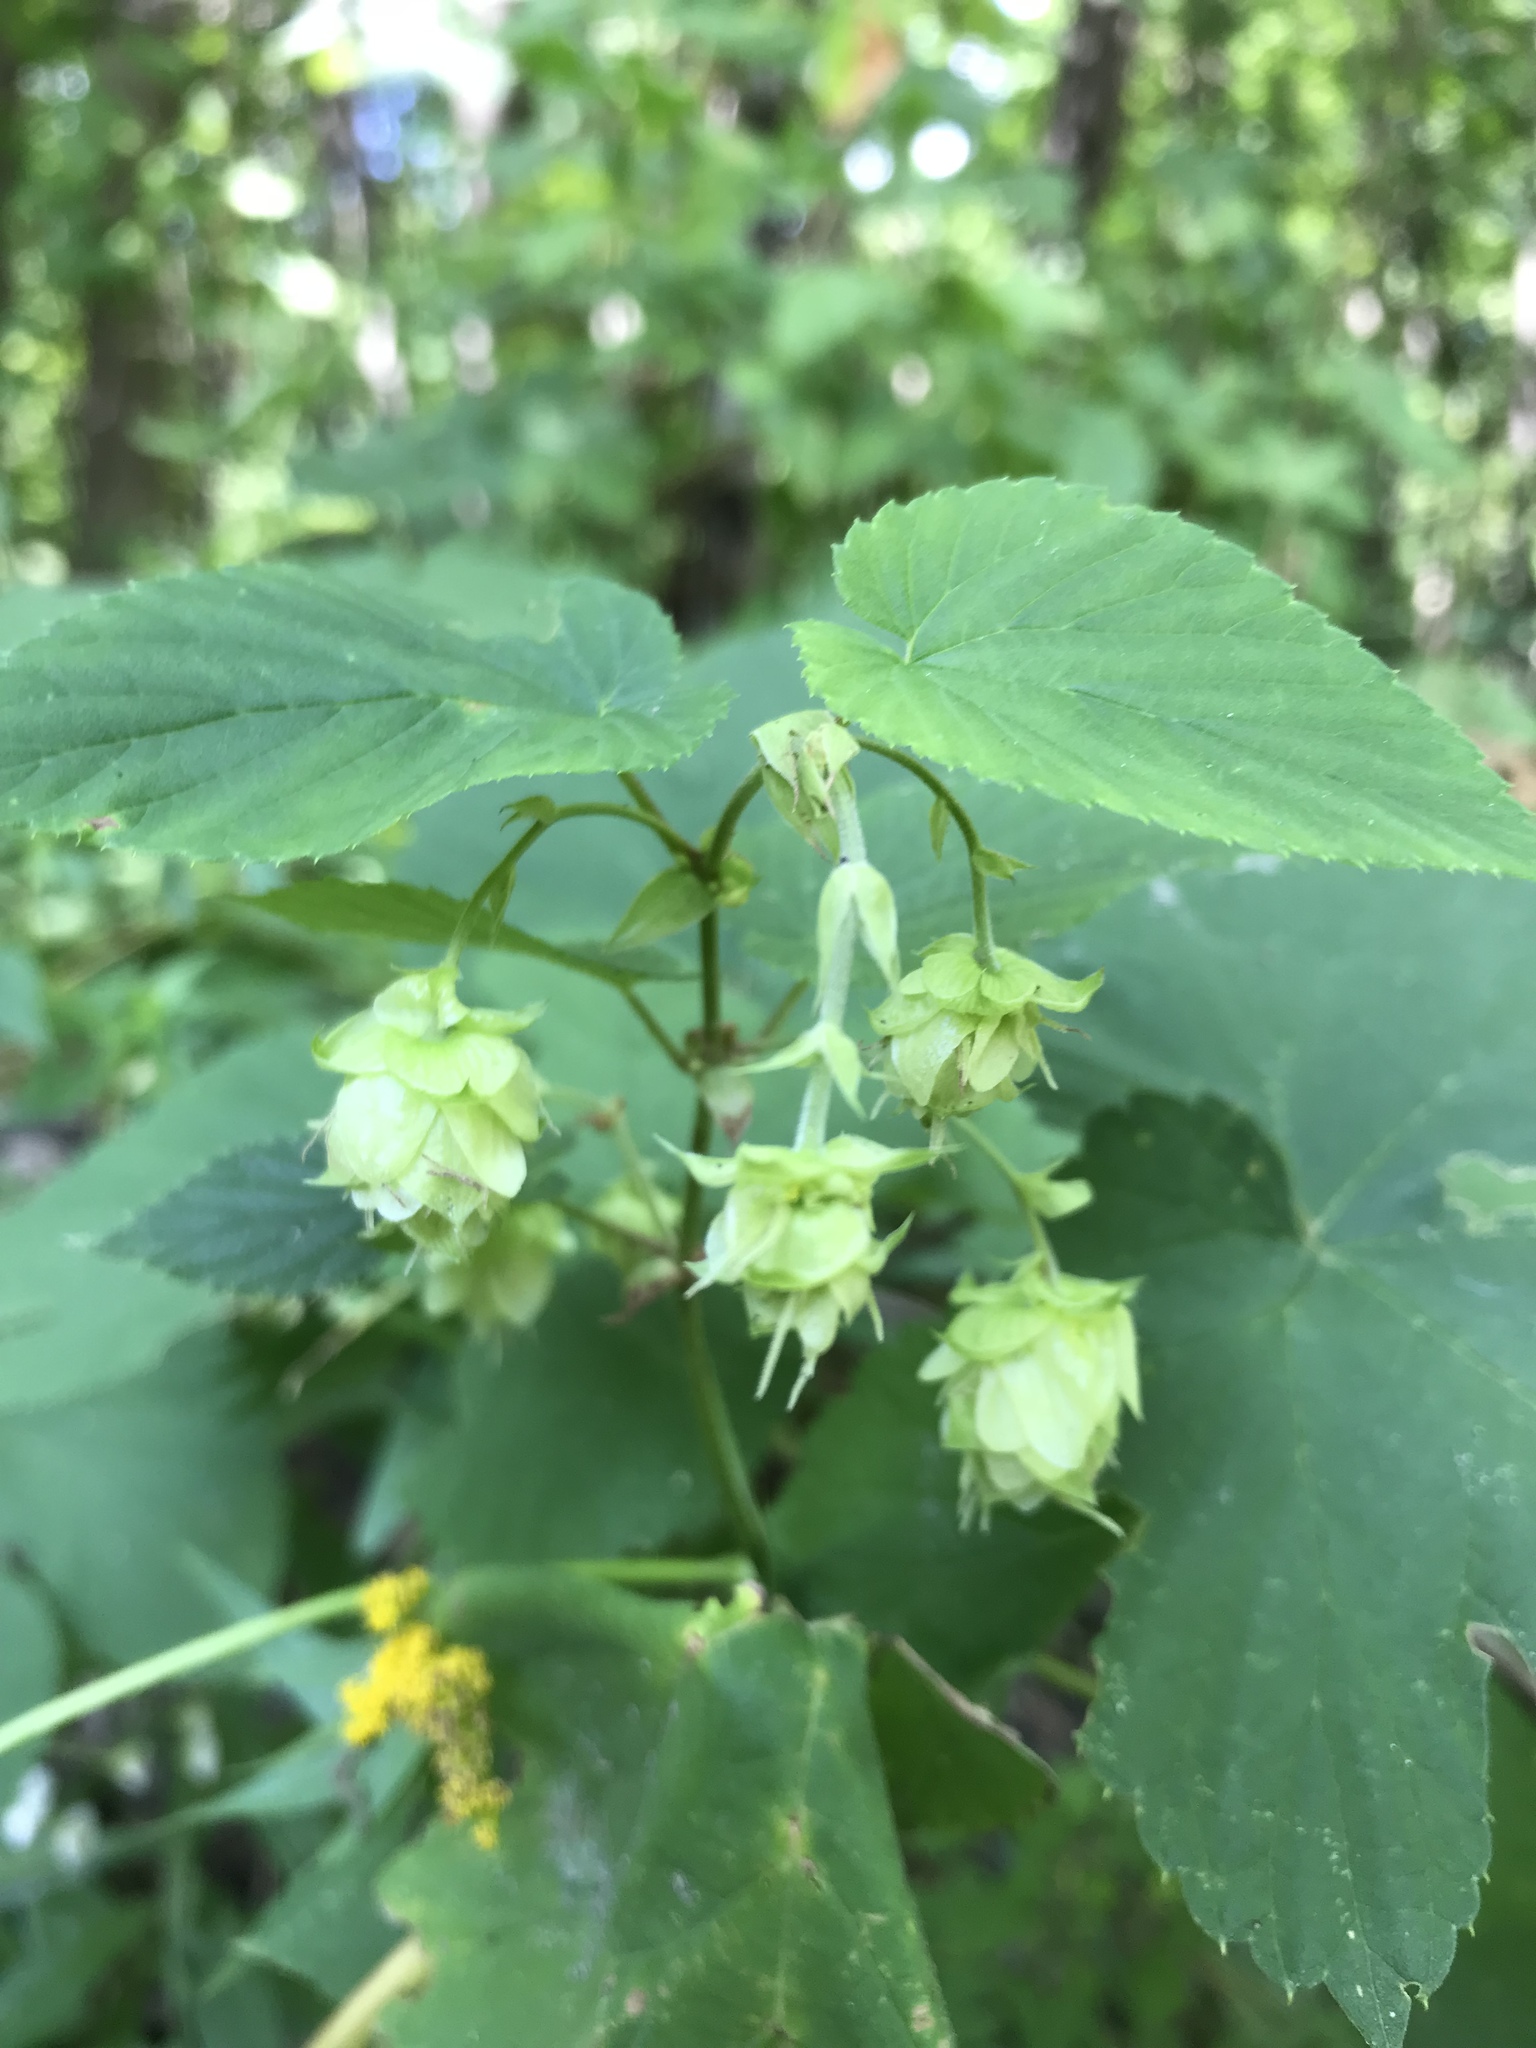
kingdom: Plantae
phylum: Tracheophyta
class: Magnoliopsida
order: Rosales
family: Cannabaceae
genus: Humulus
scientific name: Humulus lupulus
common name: Hop
